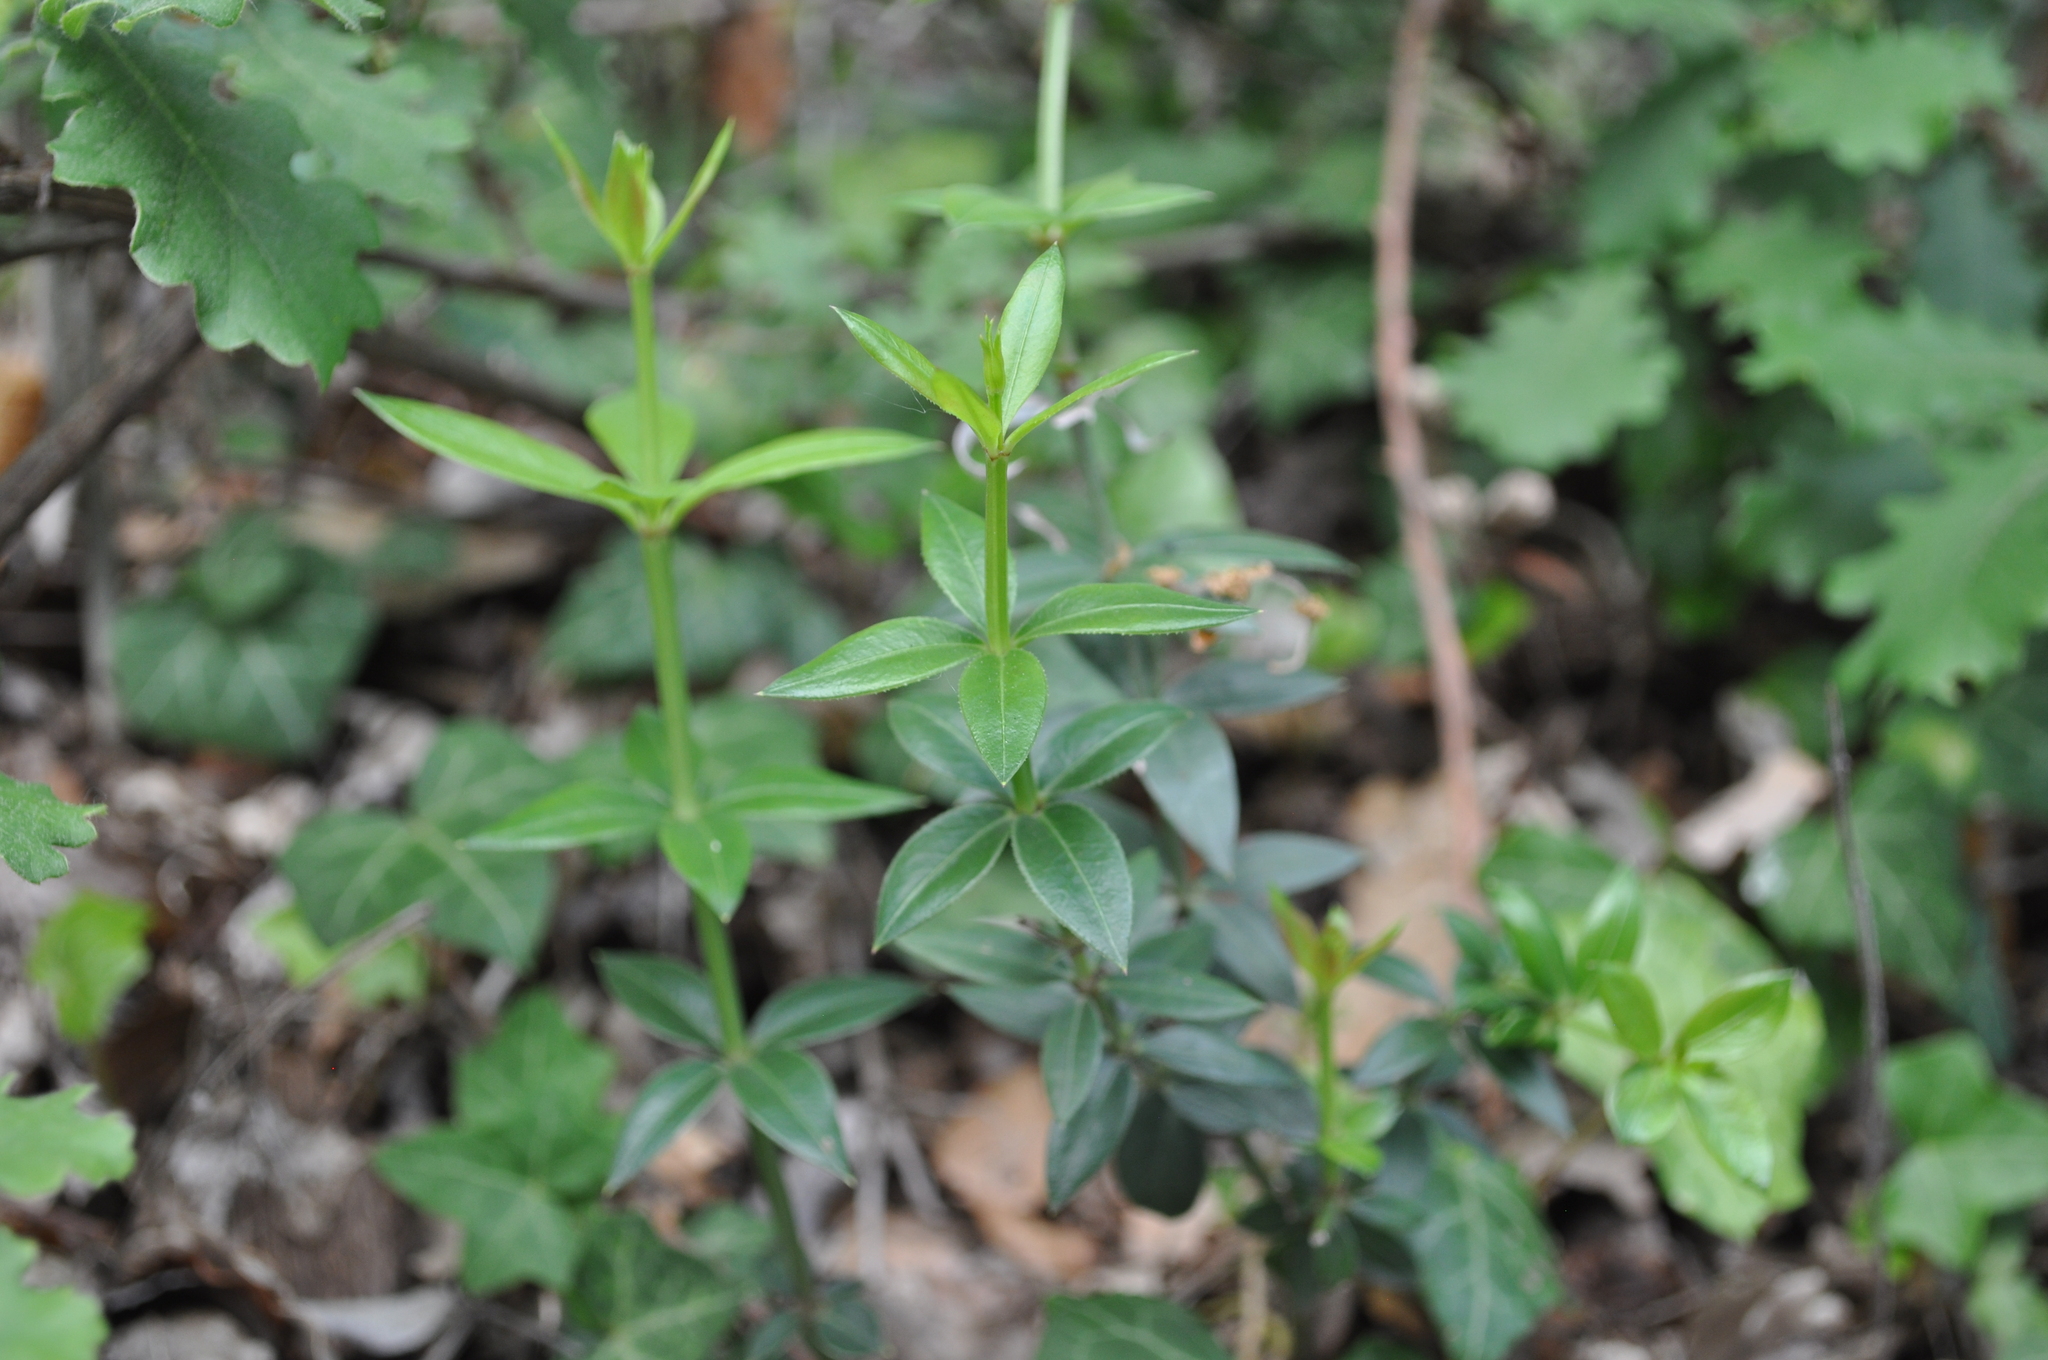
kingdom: Plantae
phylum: Tracheophyta
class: Magnoliopsida
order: Gentianales
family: Rubiaceae
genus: Rubia
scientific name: Rubia peregrina
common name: Wild madder
